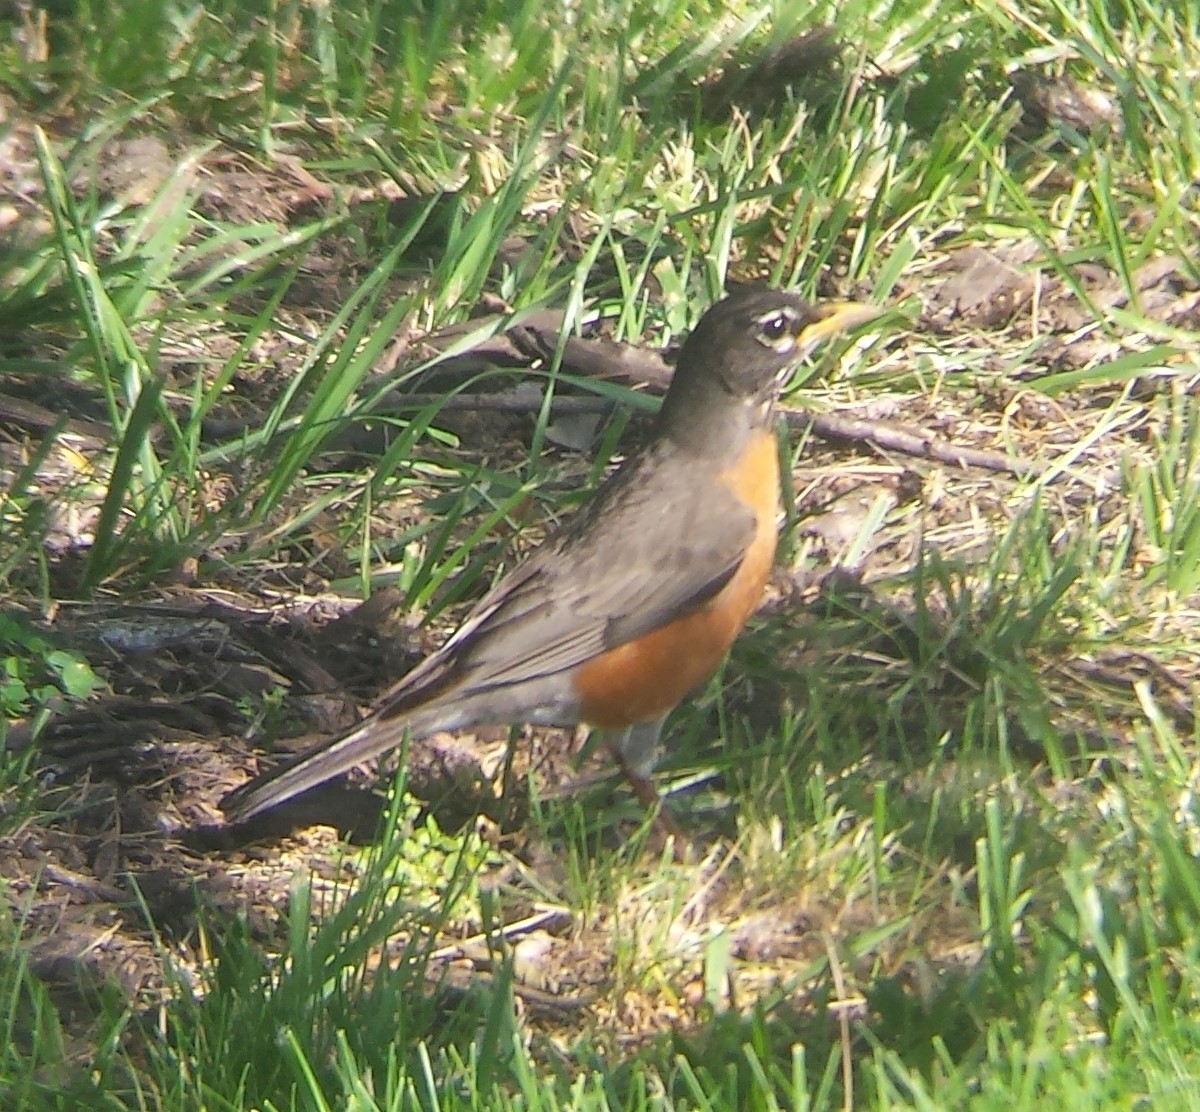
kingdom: Animalia
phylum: Chordata
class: Aves
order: Passeriformes
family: Turdidae
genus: Turdus
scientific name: Turdus migratorius
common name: American robin
